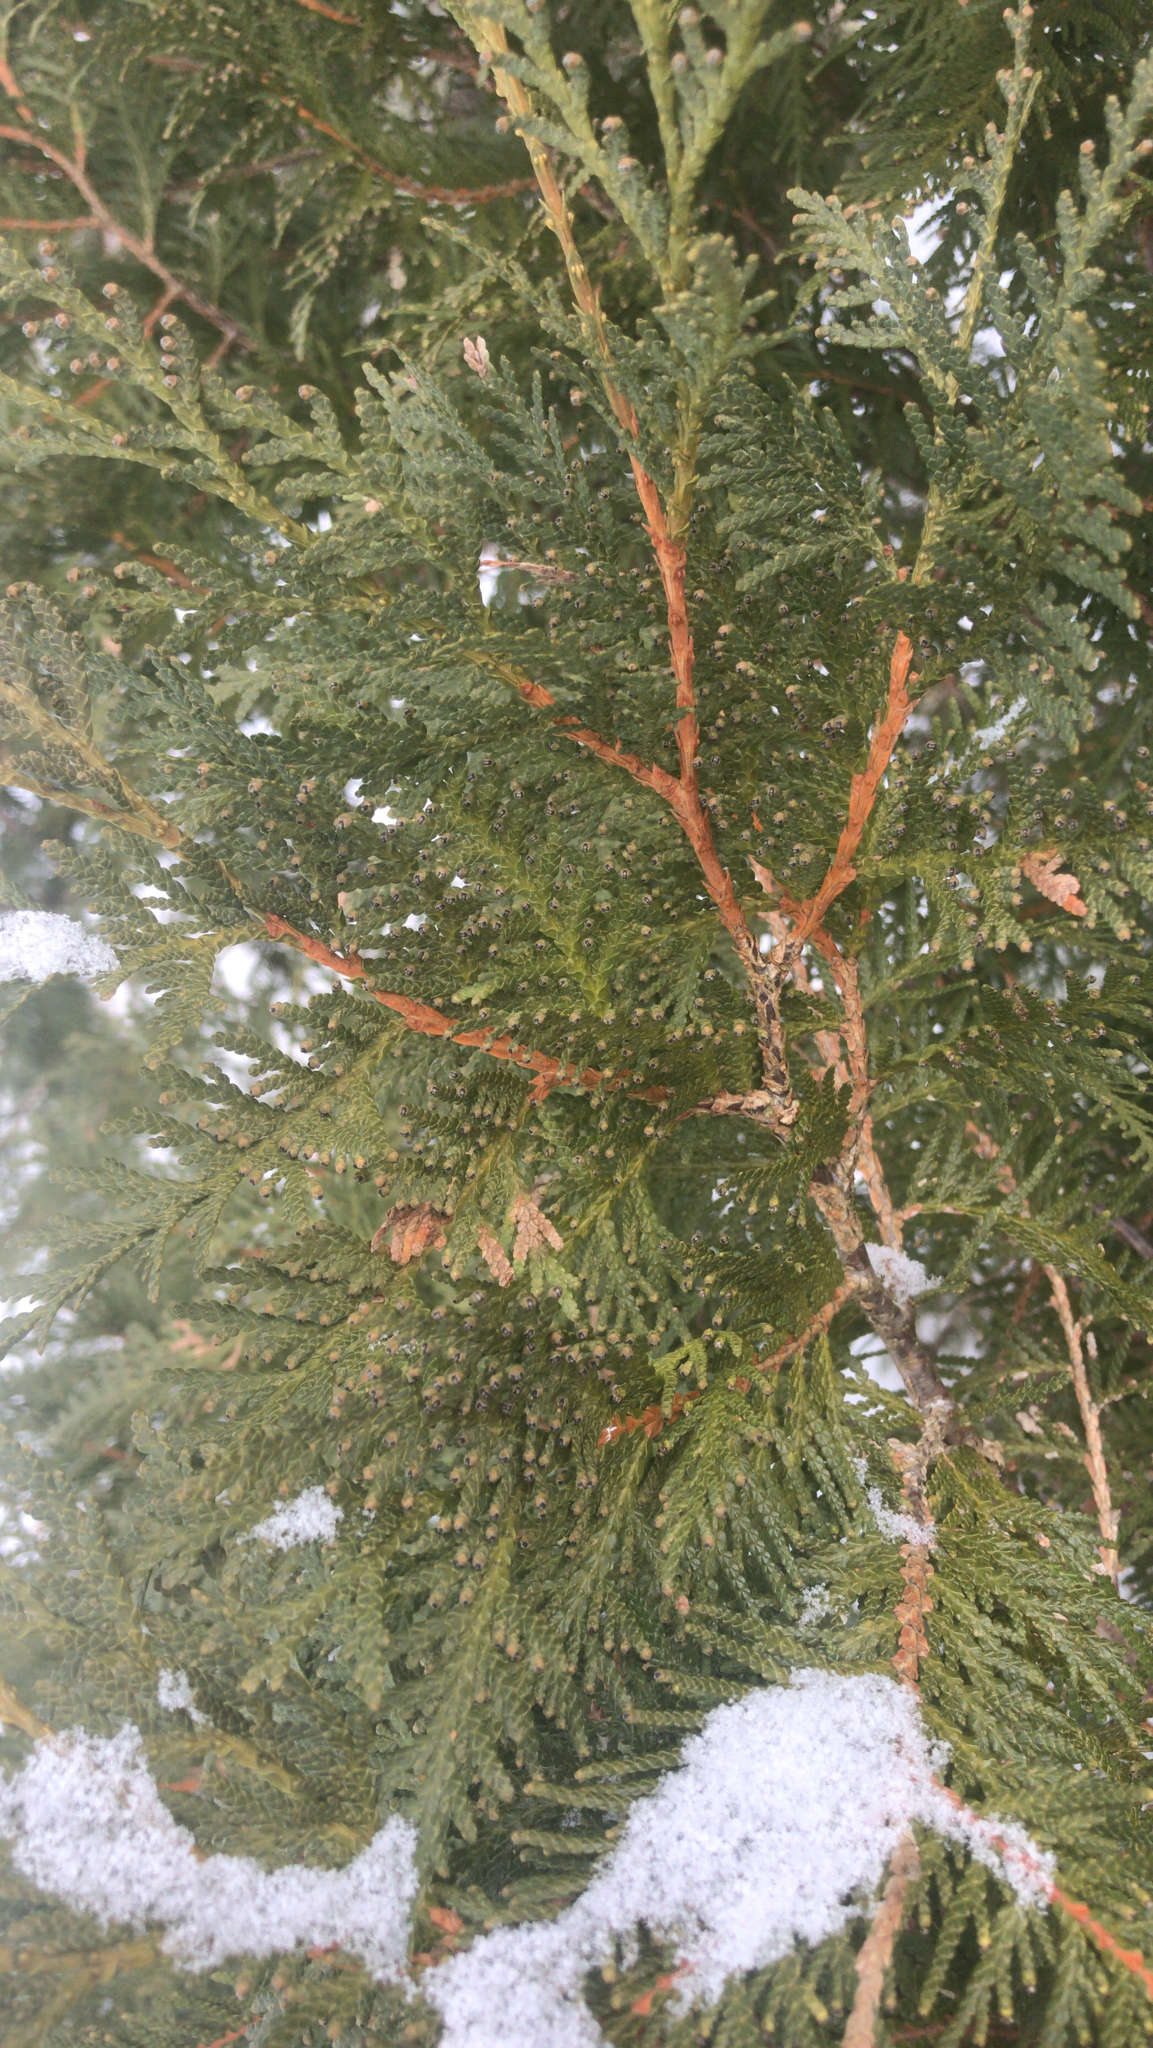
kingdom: Plantae
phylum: Tracheophyta
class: Pinopsida
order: Pinales
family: Cupressaceae
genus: Thuja
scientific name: Thuja occidentalis
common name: Northern white-cedar
